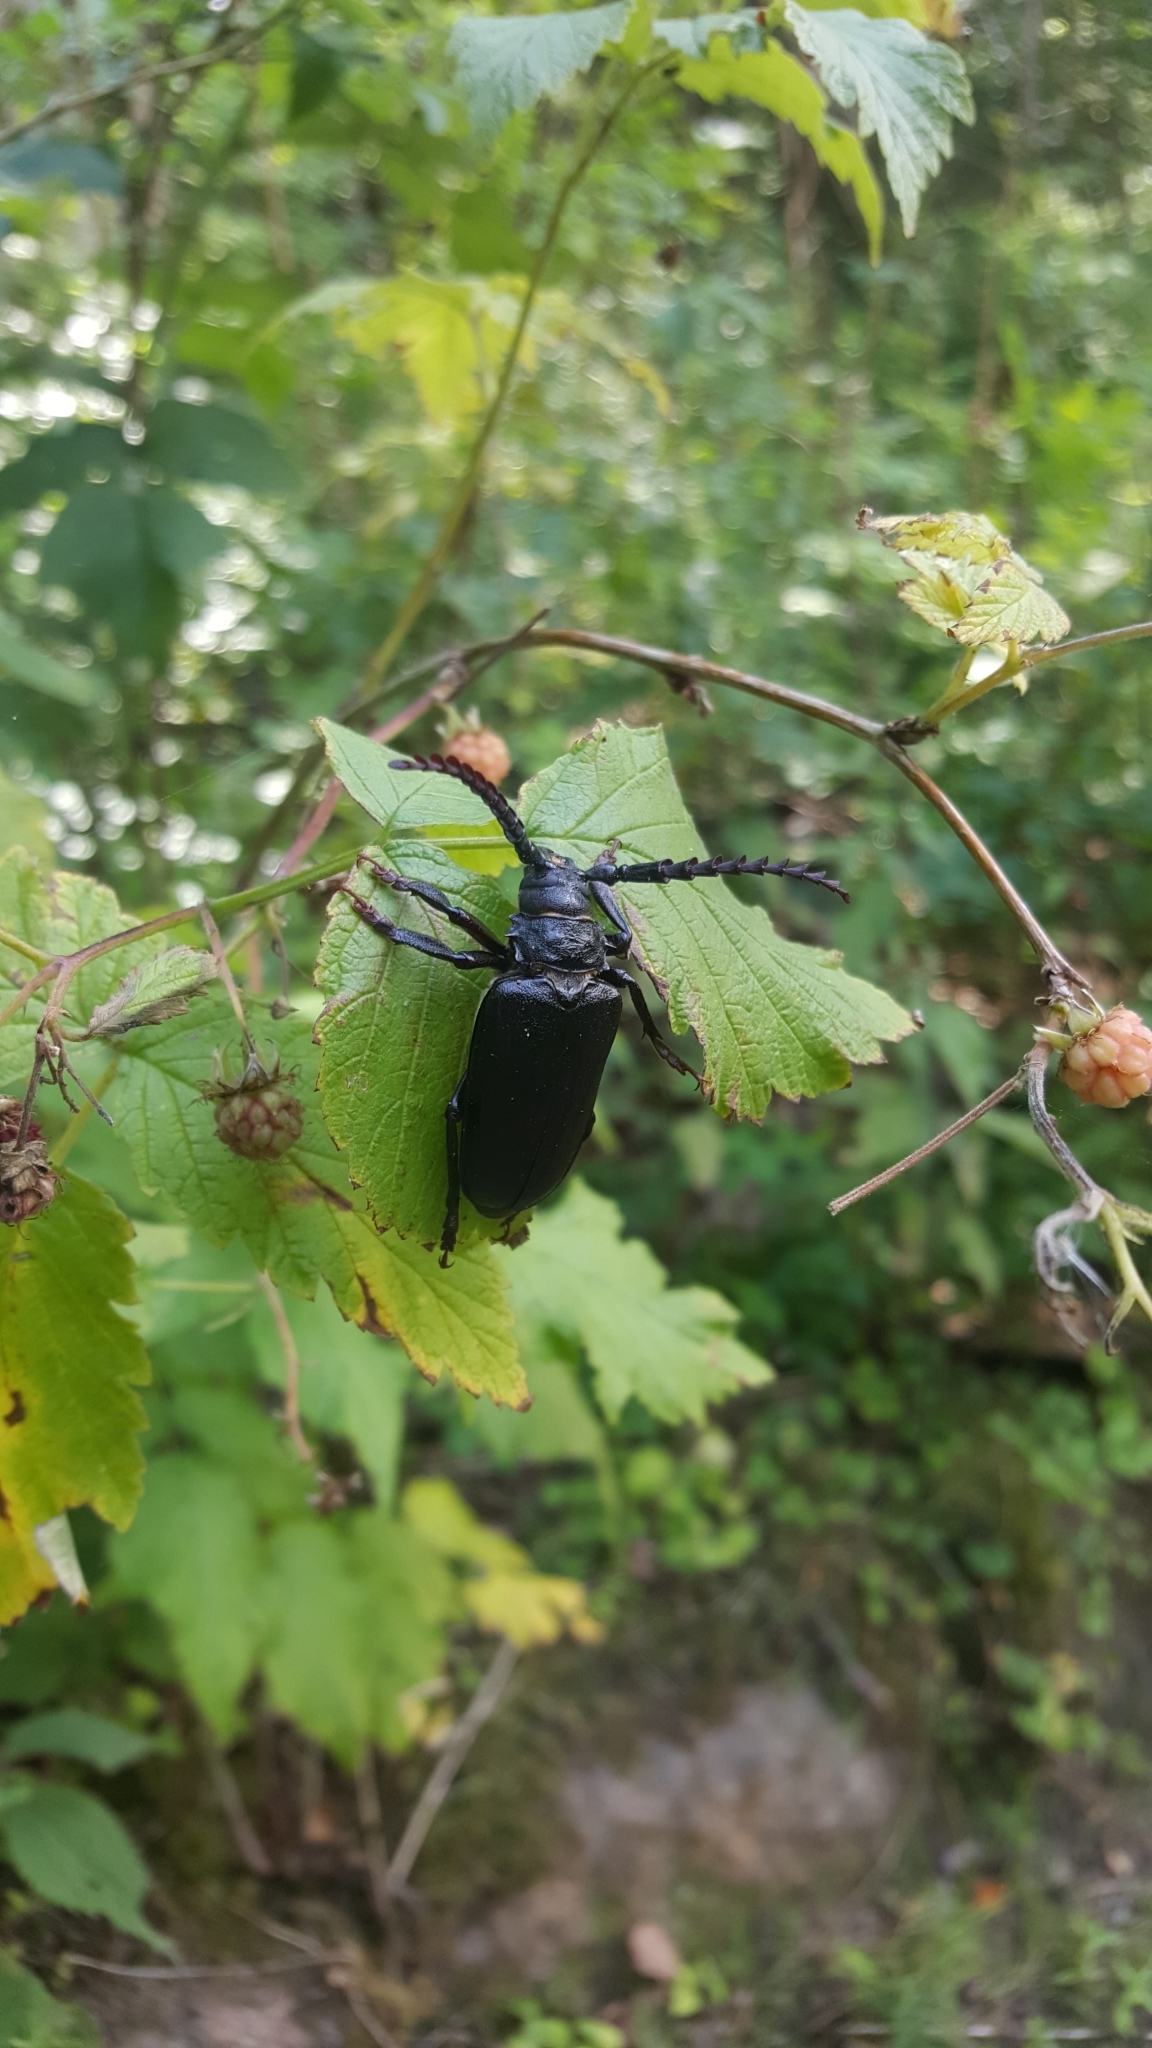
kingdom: Animalia
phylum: Arthropoda
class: Insecta
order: Coleoptera
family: Cerambycidae
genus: Prionus
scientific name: Prionus coriarius
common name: Tanner beetle
